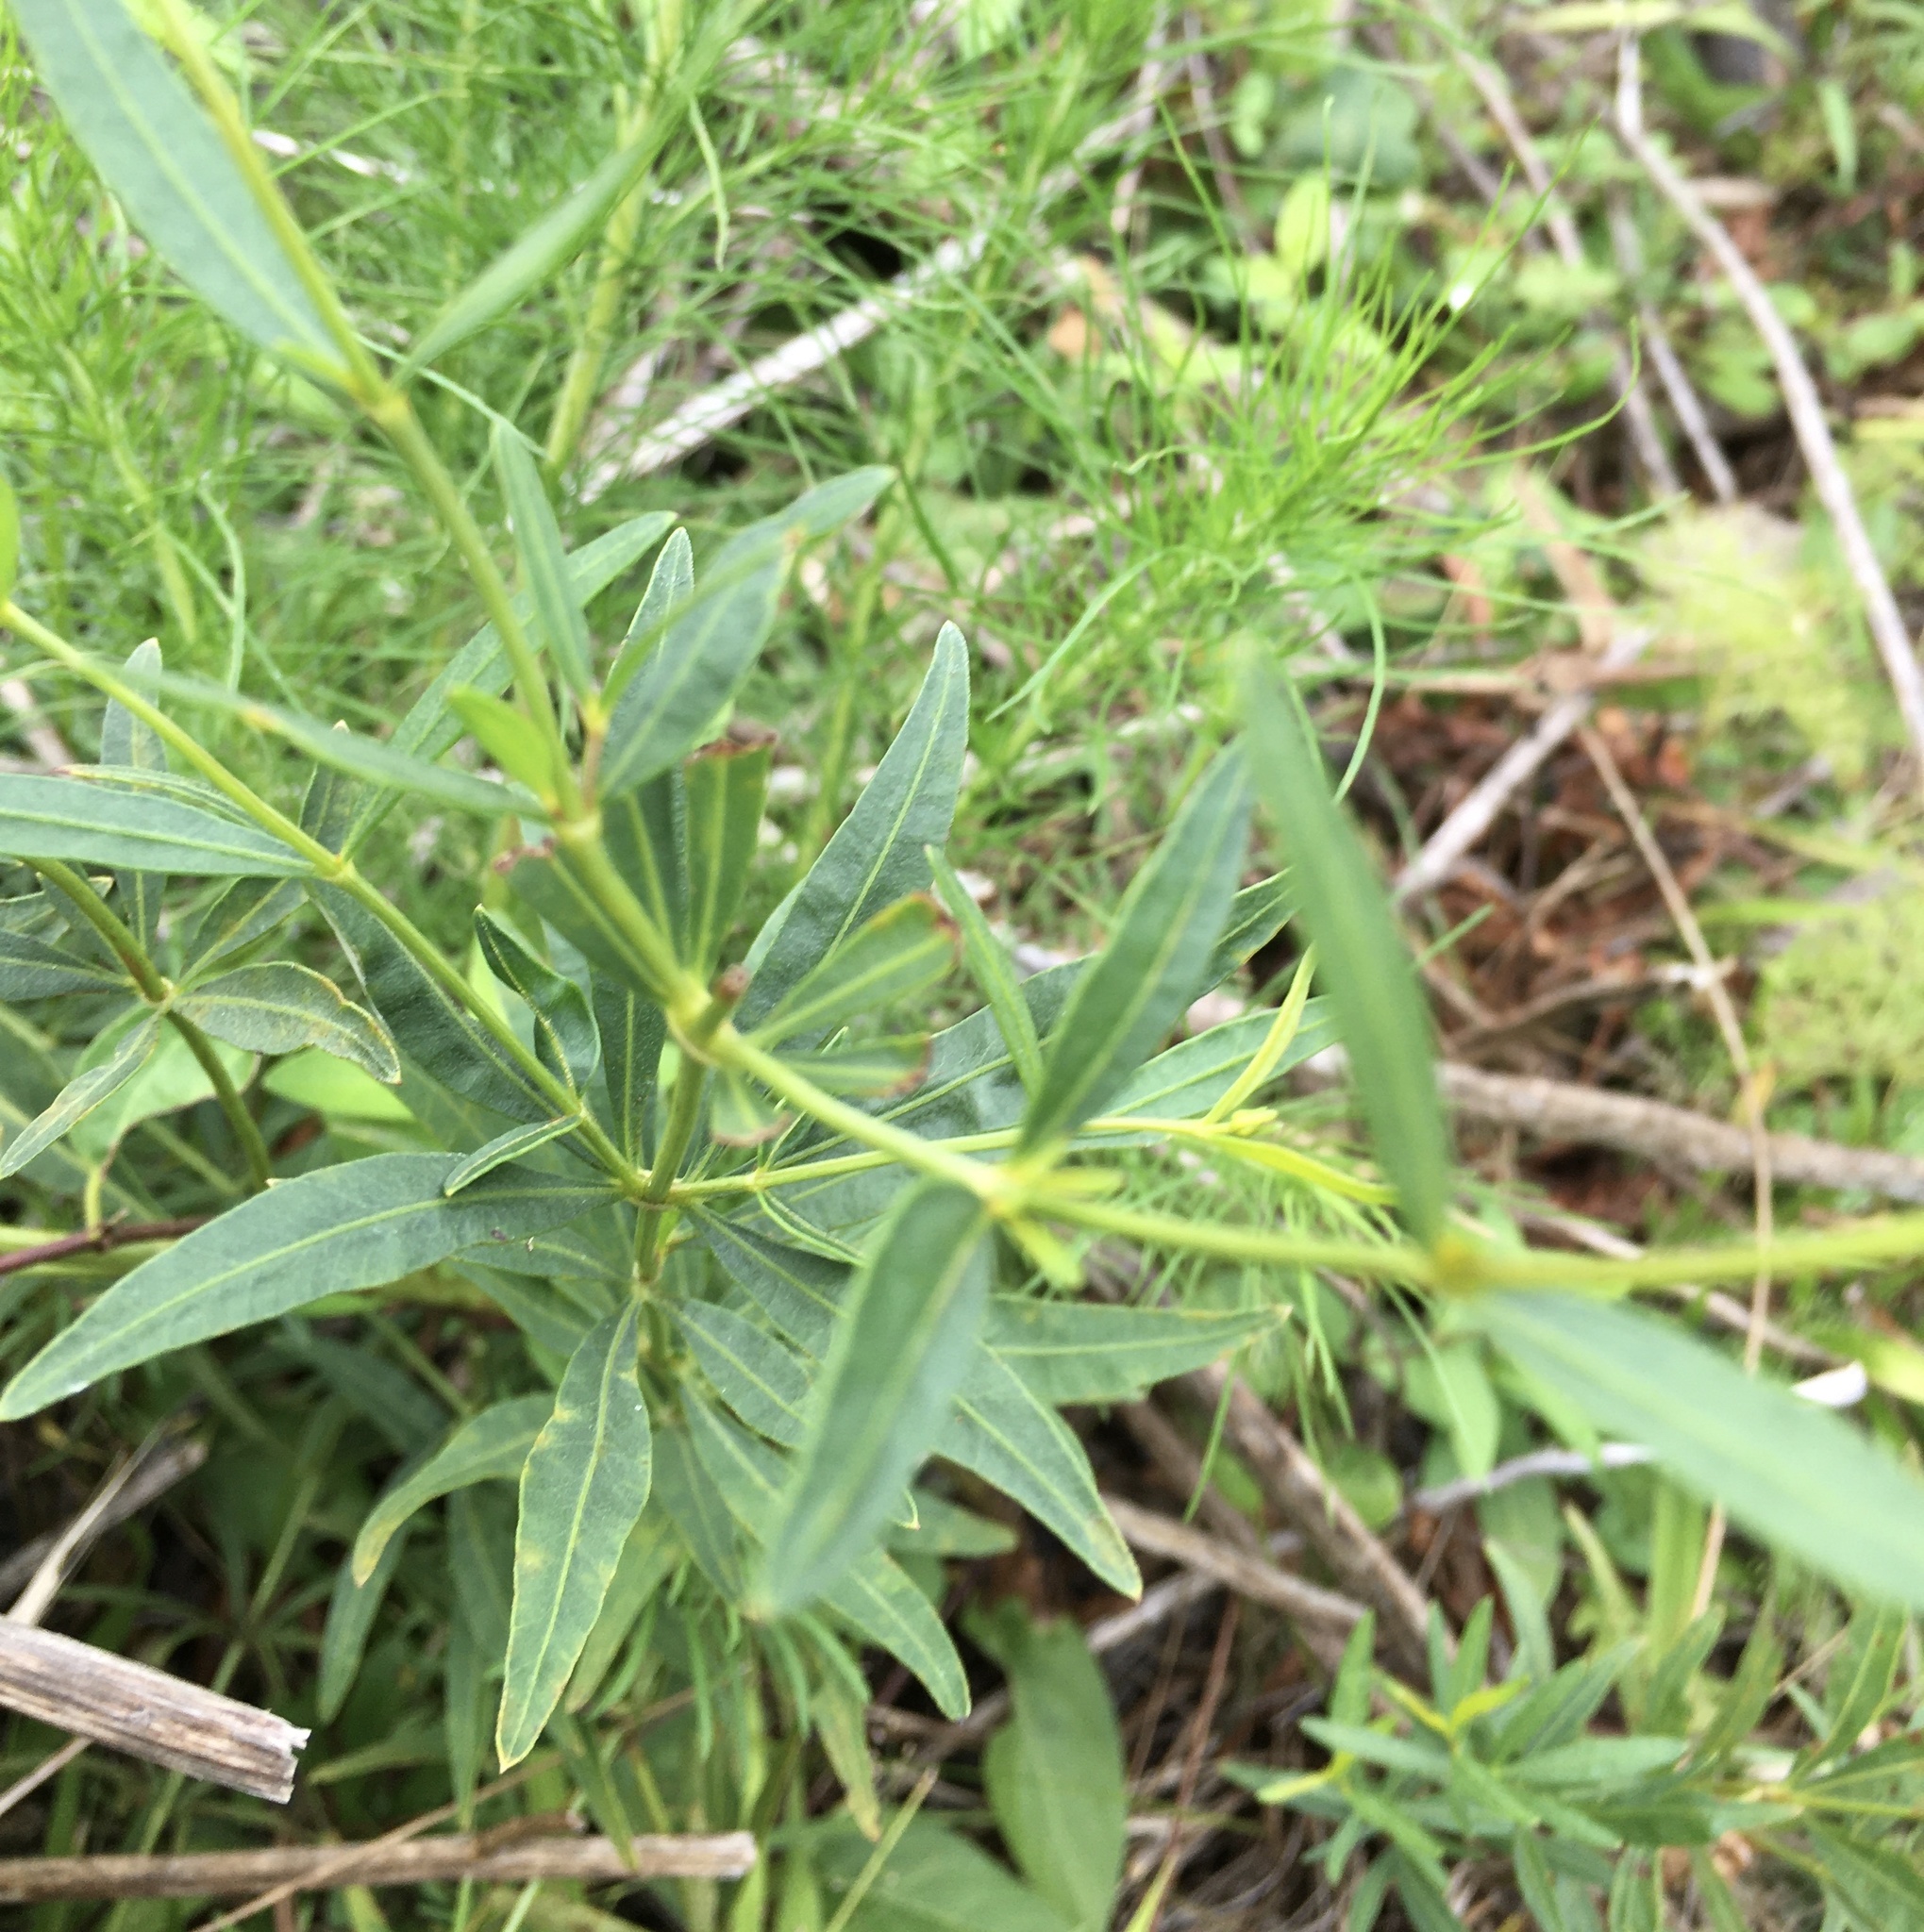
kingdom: Plantae
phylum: Tracheophyta
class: Magnoliopsida
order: Asterales
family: Asteraceae
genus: Coreopsis
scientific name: Coreopsis major
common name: Forest tickseed
